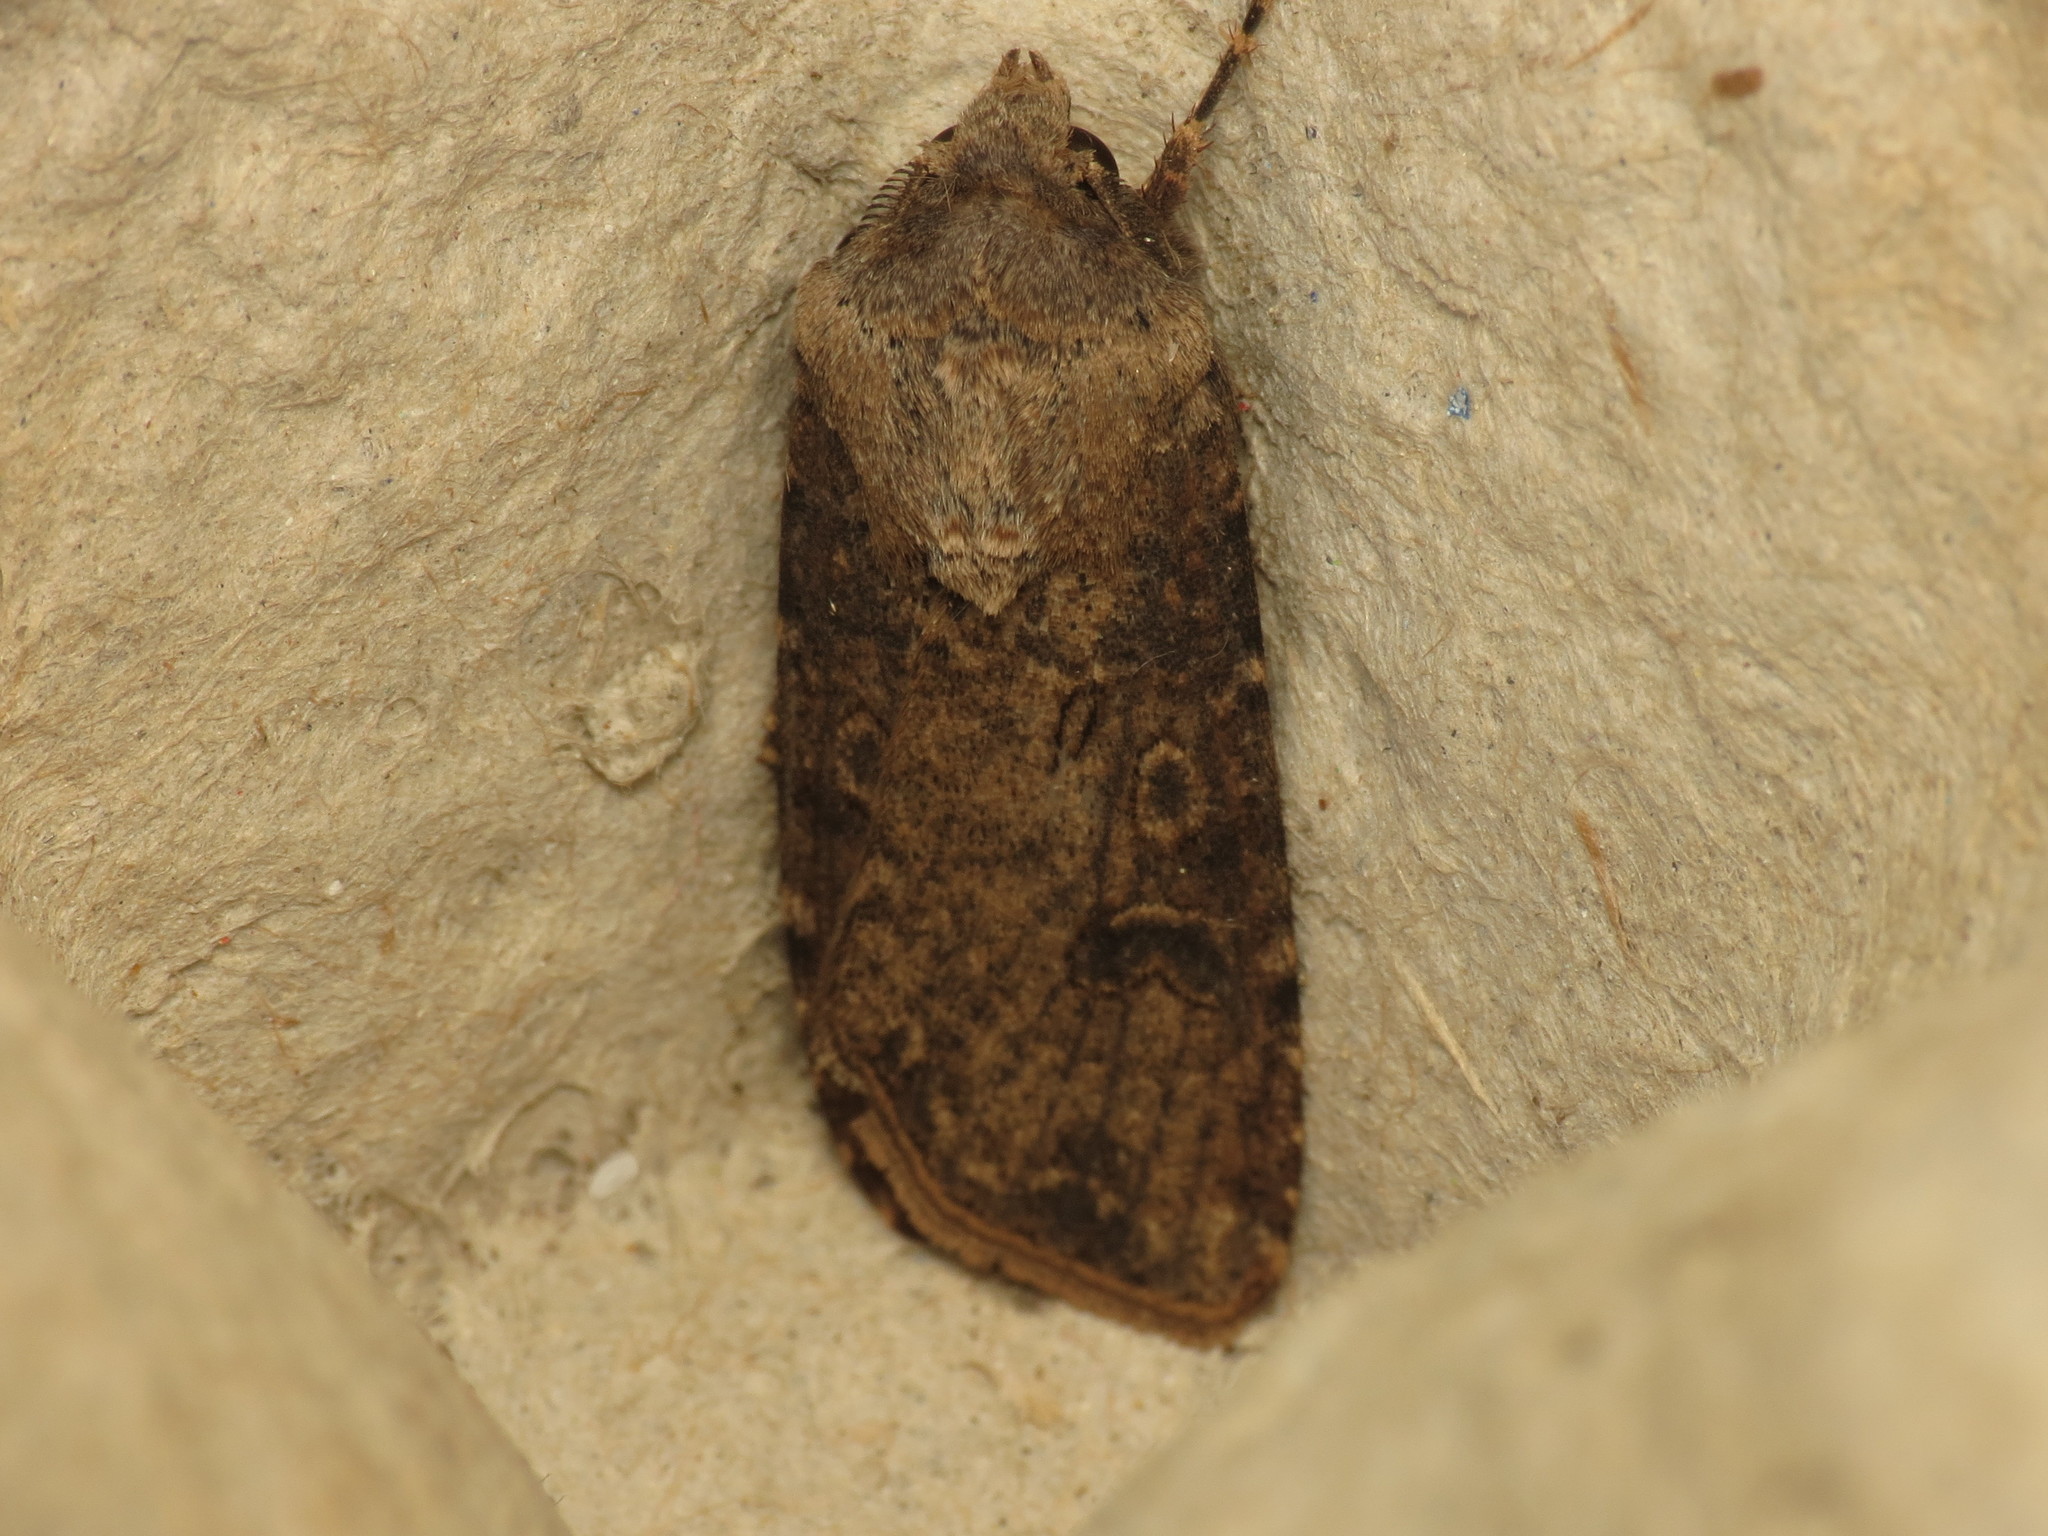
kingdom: Animalia
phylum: Arthropoda
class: Insecta
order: Lepidoptera
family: Noctuidae
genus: Agrotis
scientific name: Agrotis segetum
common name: Turnip moth
